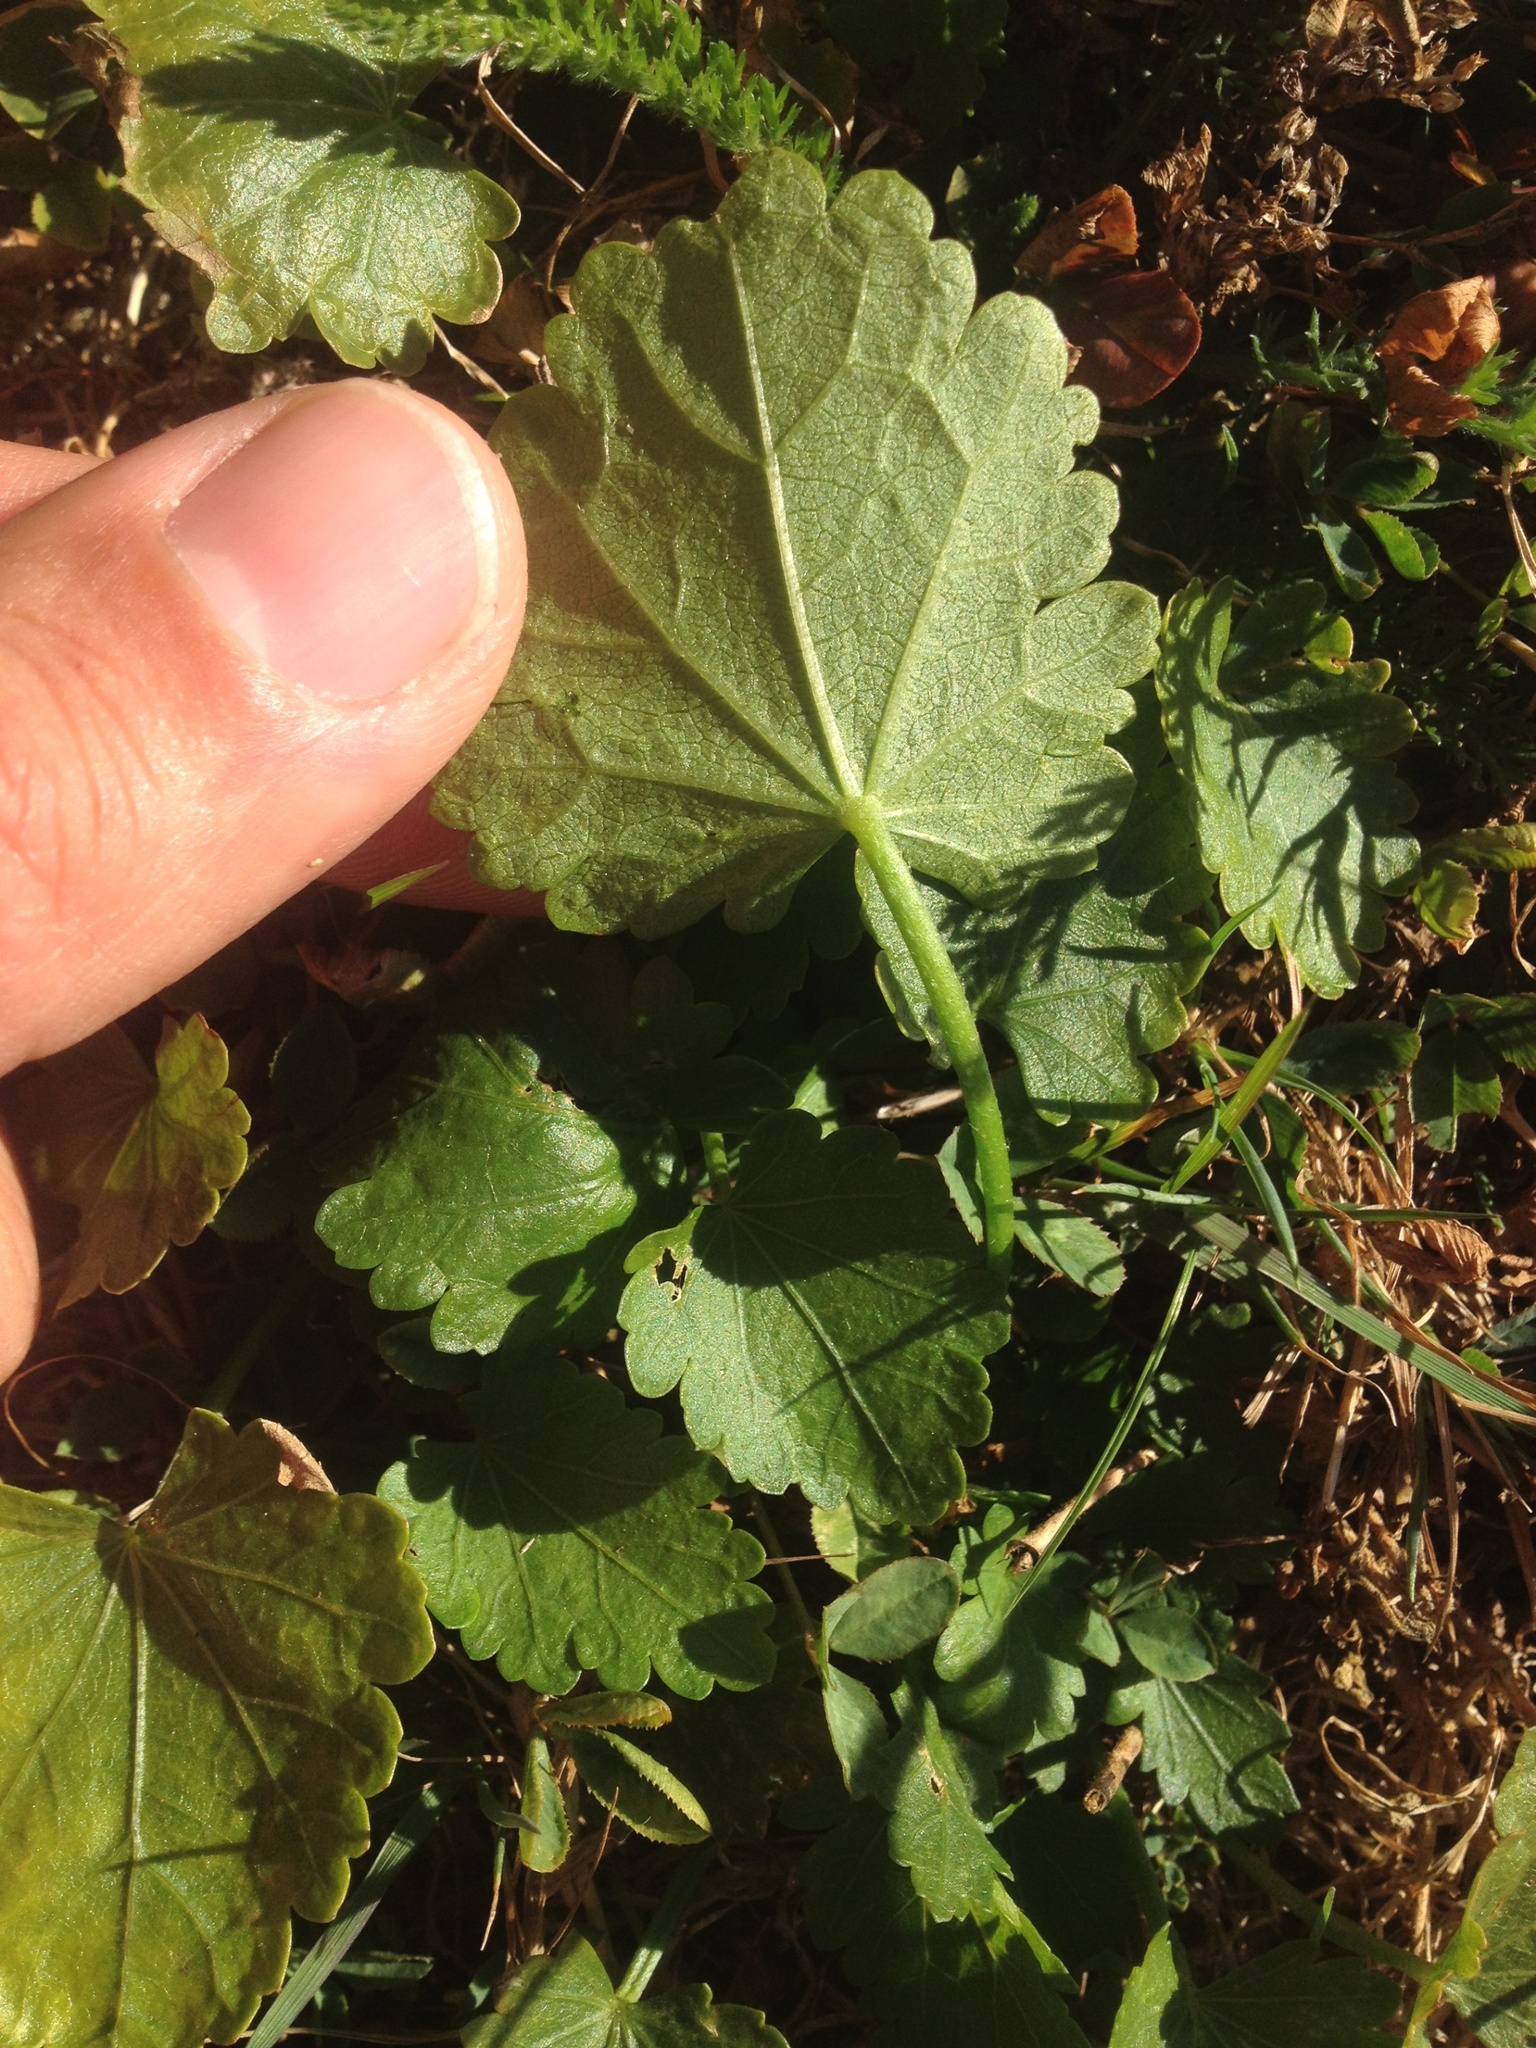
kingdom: Plantae
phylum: Tracheophyta
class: Magnoliopsida
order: Malvales
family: Malvaceae
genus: Modiola
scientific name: Modiola caroliniana
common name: Carolina bristlemallow
